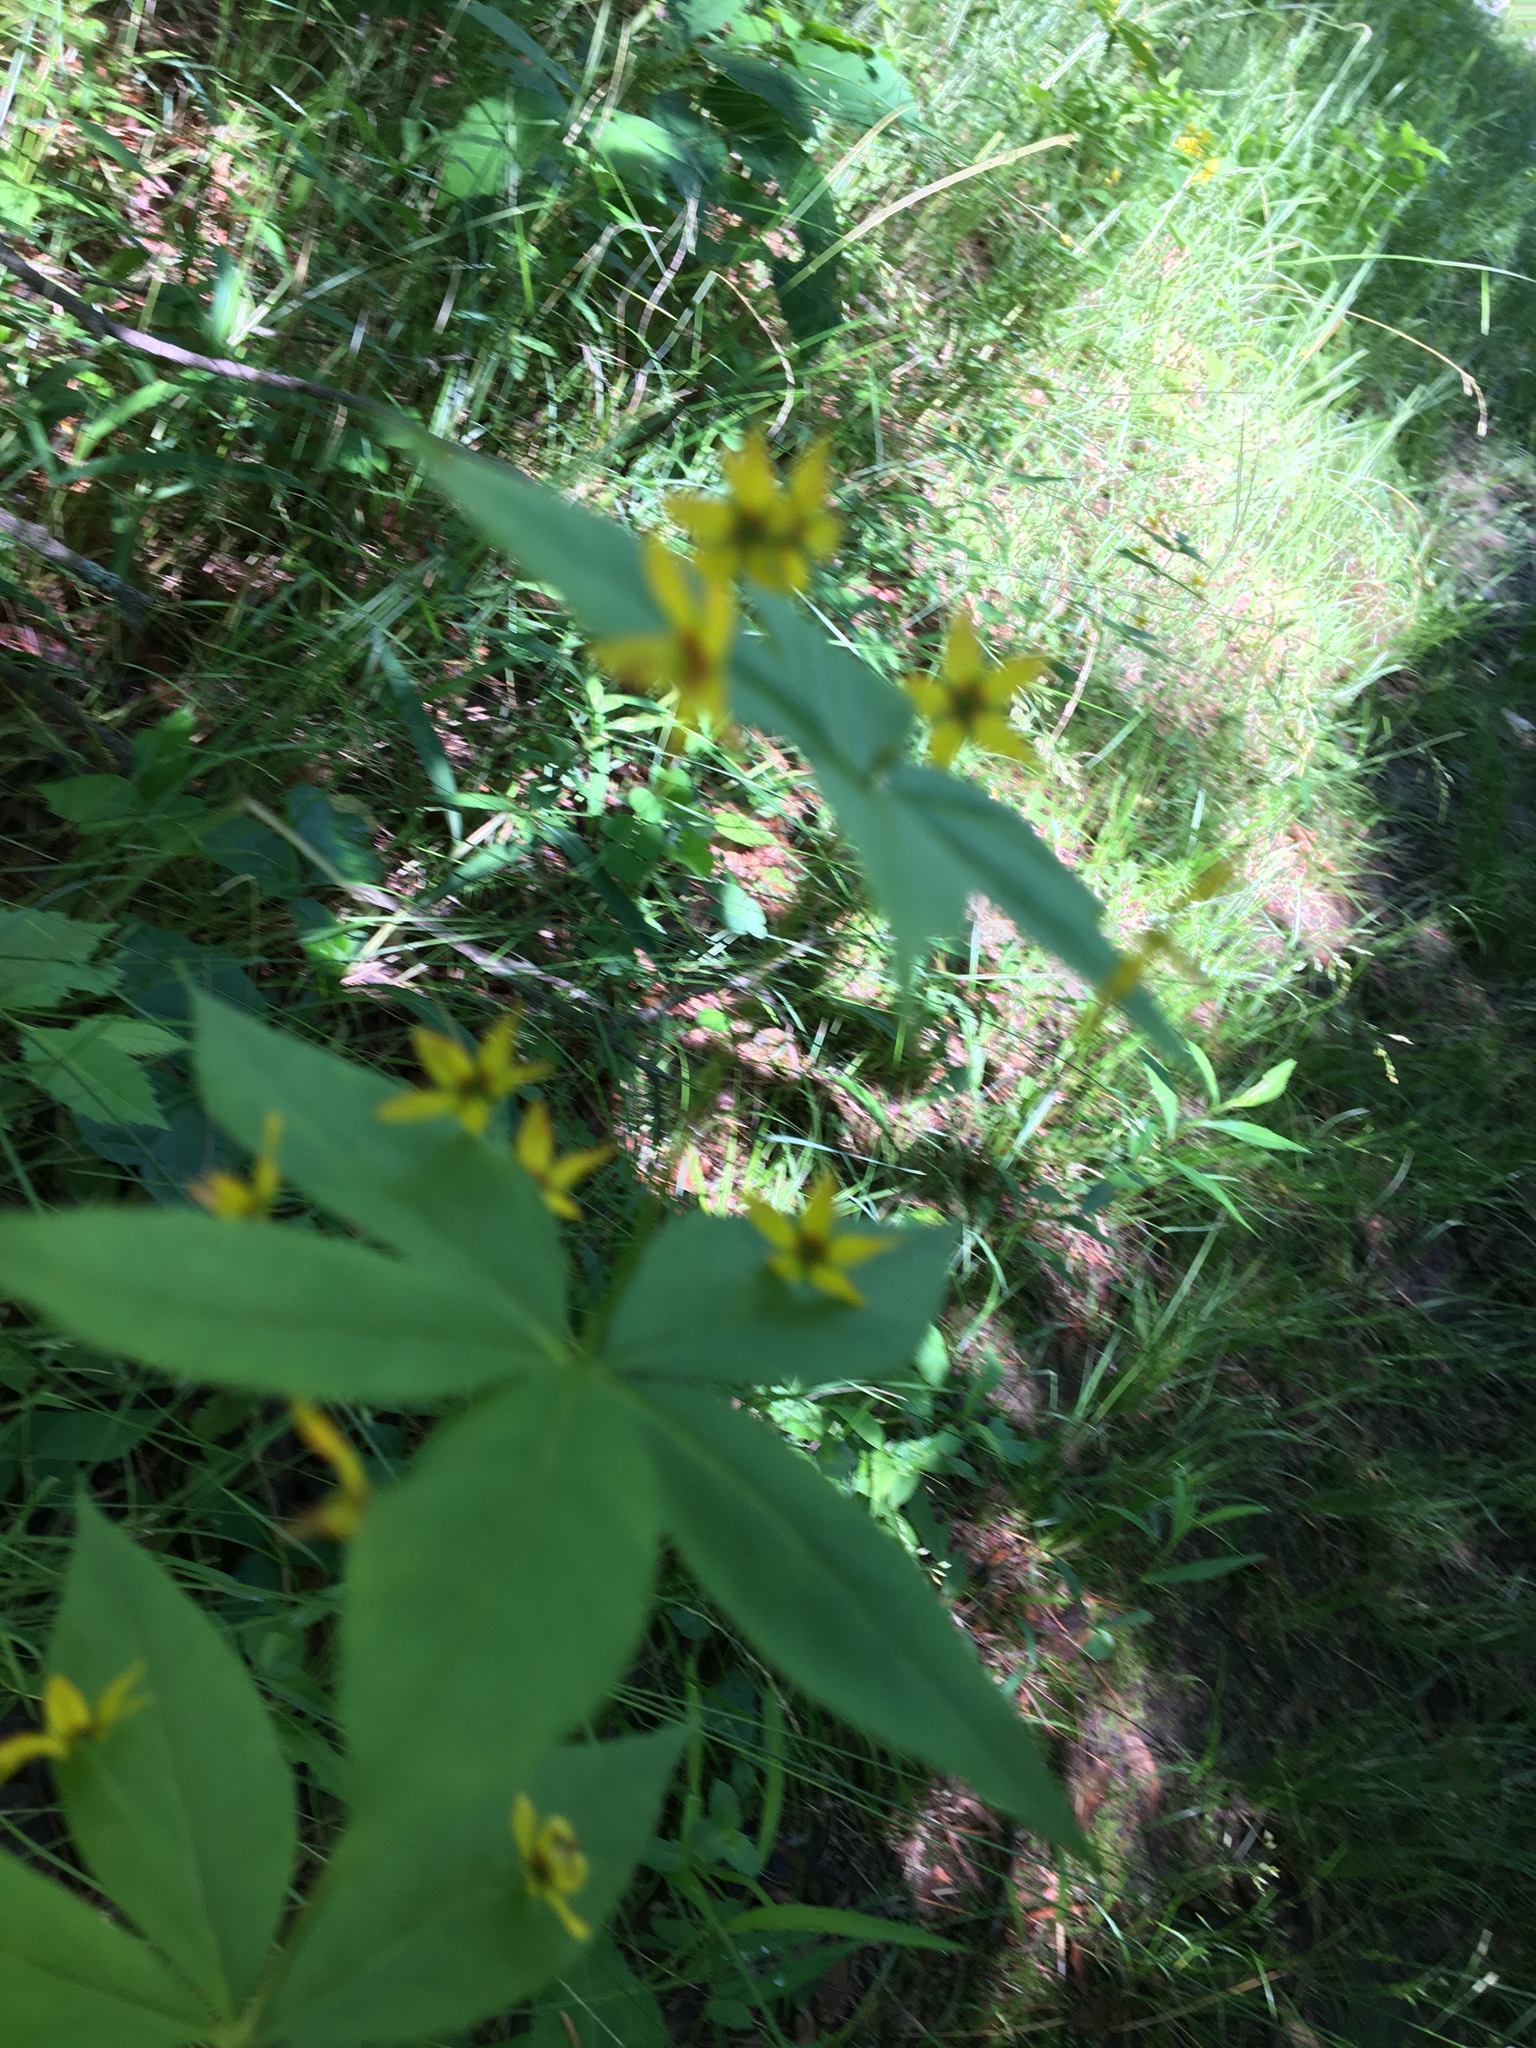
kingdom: Plantae
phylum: Tracheophyta
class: Magnoliopsida
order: Ericales
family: Primulaceae
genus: Lysimachia
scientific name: Lysimachia quadrifolia
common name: Whorled loosestrife
